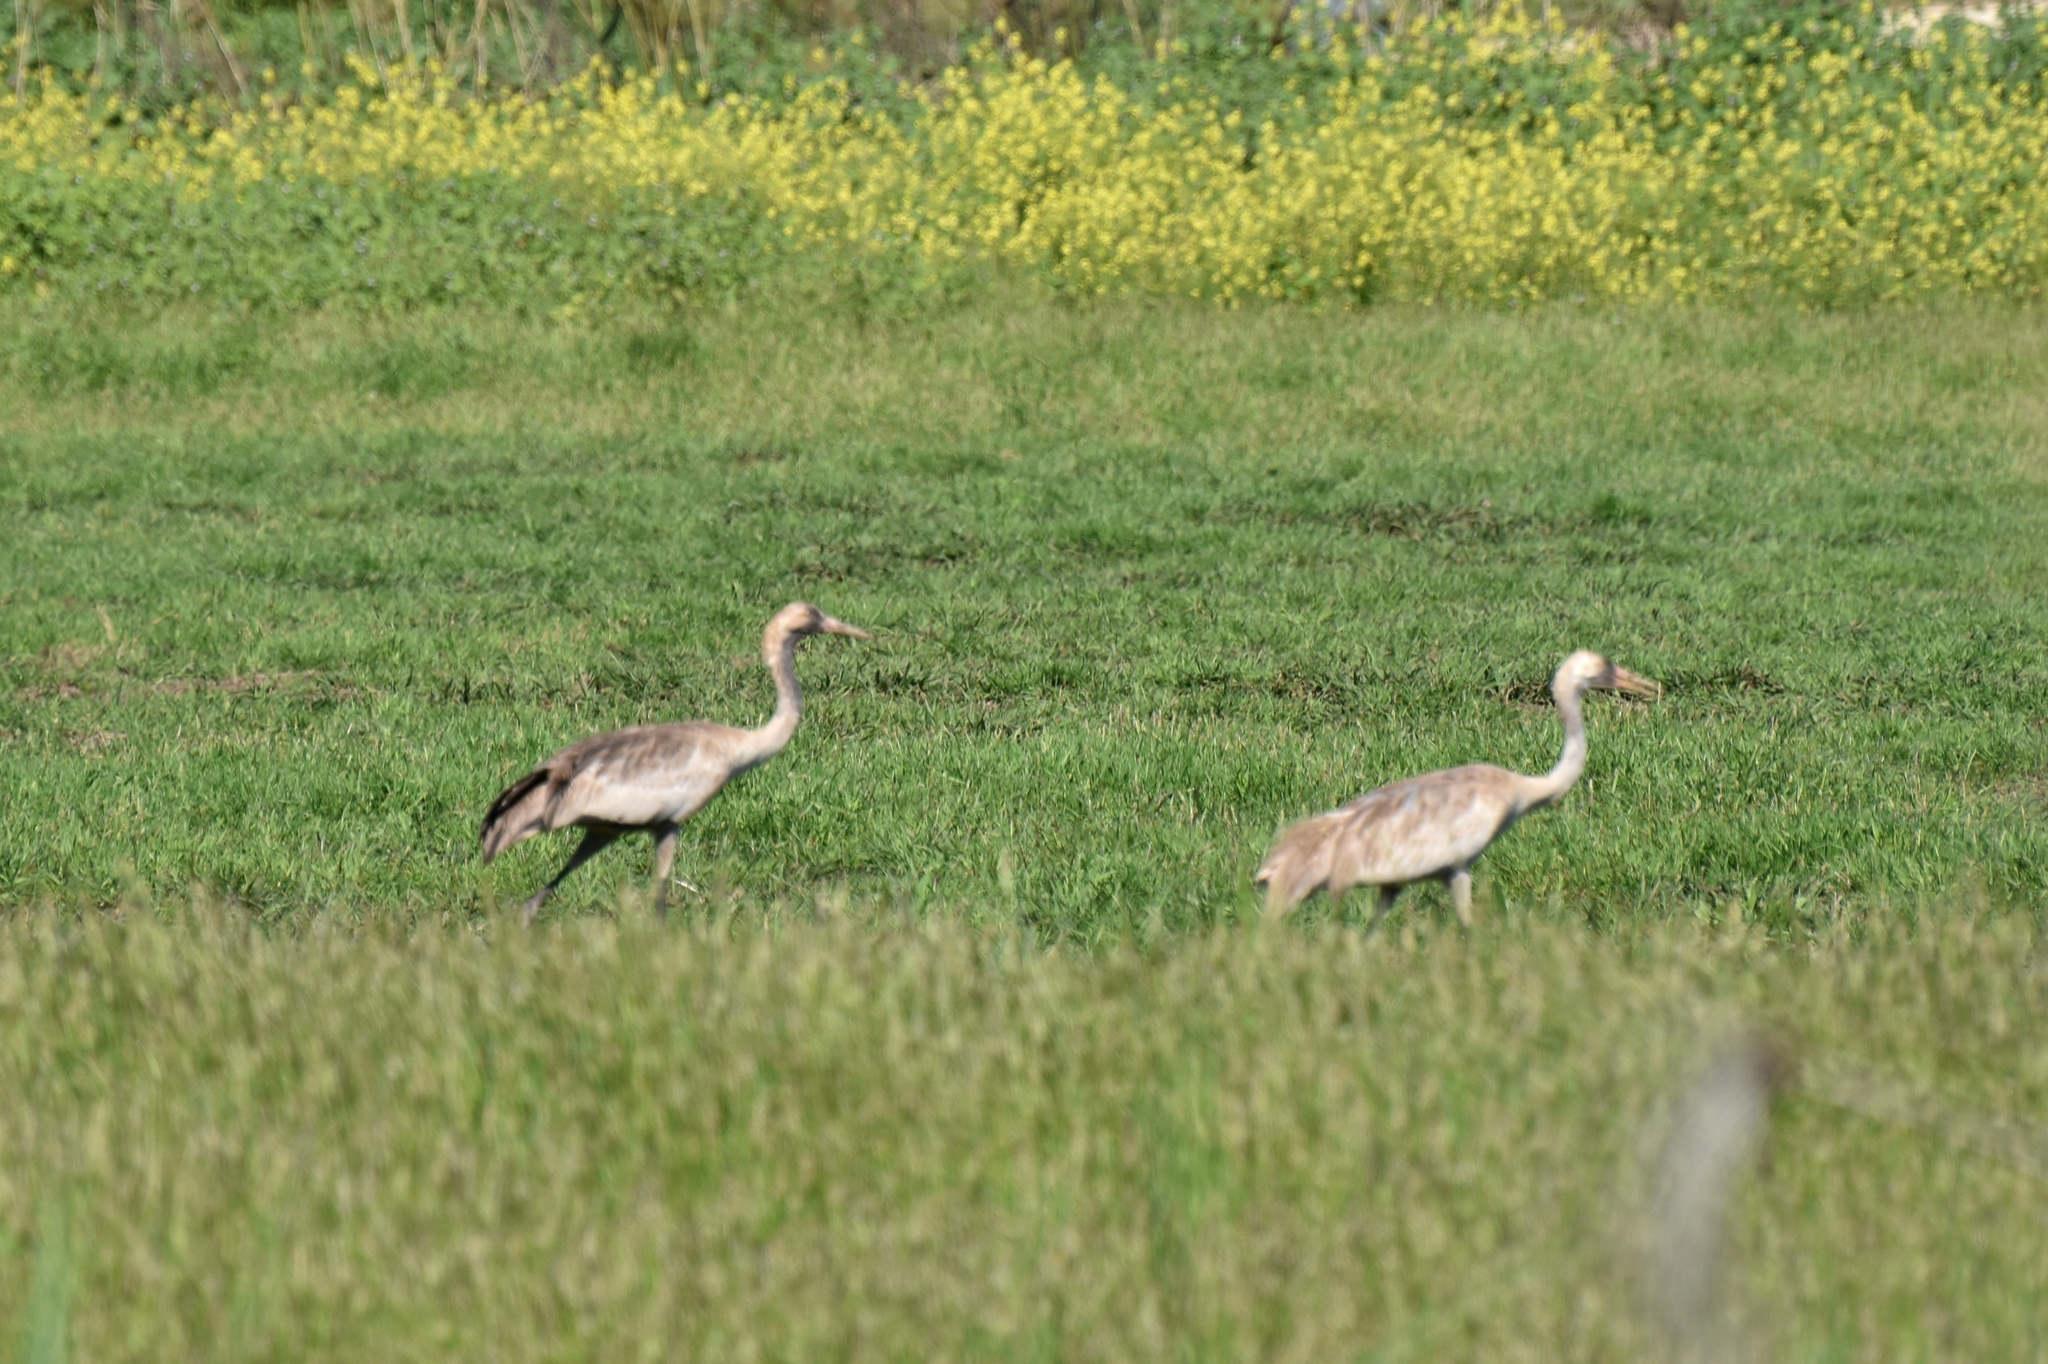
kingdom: Animalia
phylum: Chordata
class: Aves
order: Gruiformes
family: Gruidae
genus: Grus
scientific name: Grus grus
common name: Common crane
